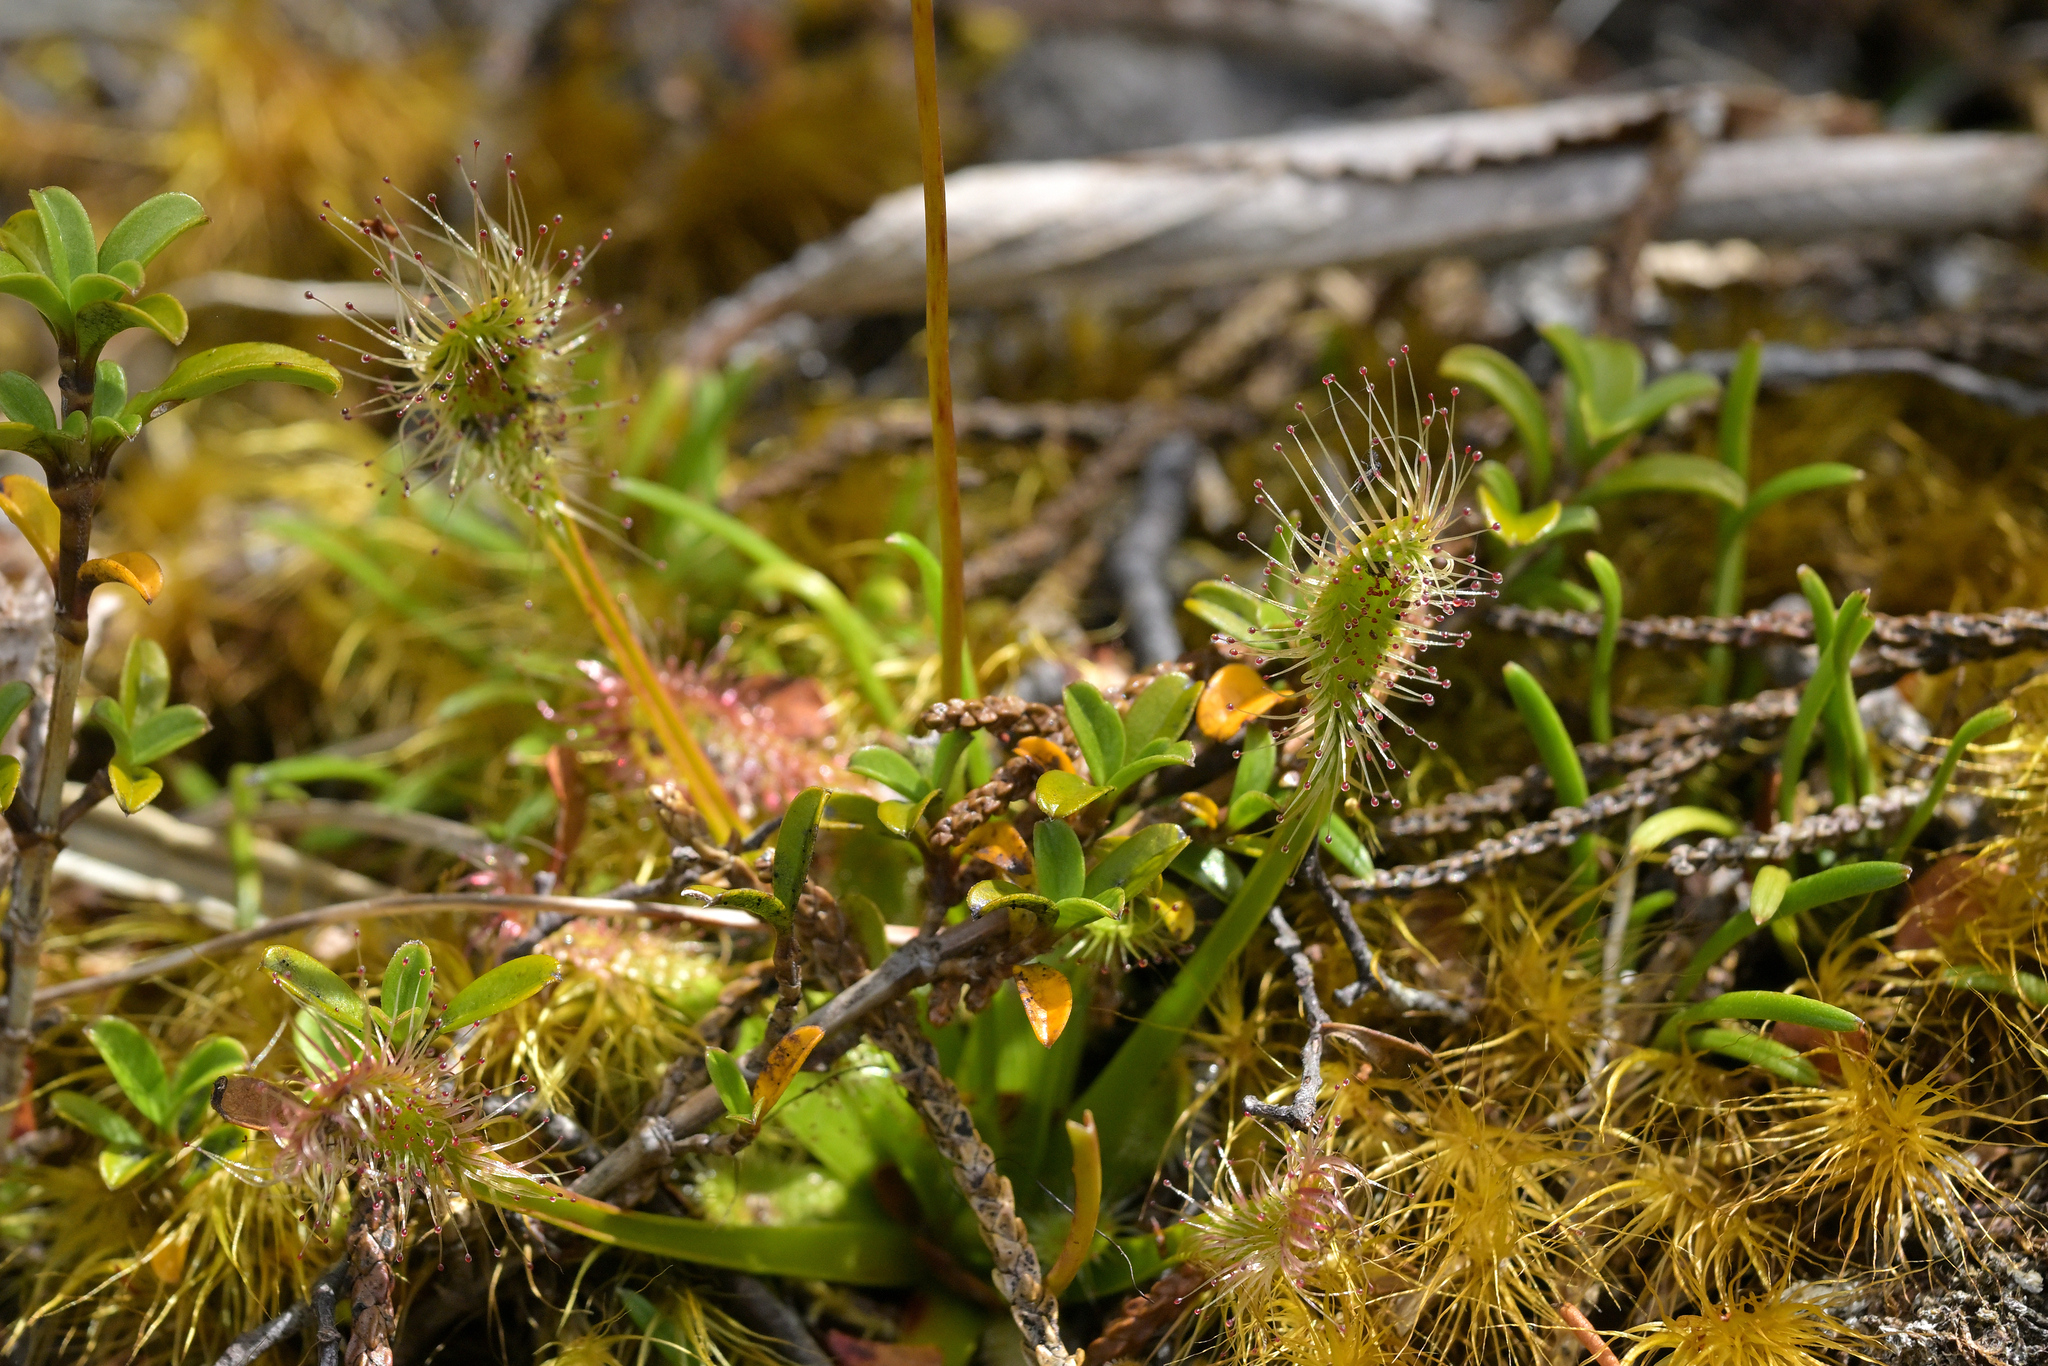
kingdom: Plantae
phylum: Tracheophyta
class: Magnoliopsida
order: Caryophyllales
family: Droseraceae
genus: Drosera
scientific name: Drosera stenopetala
